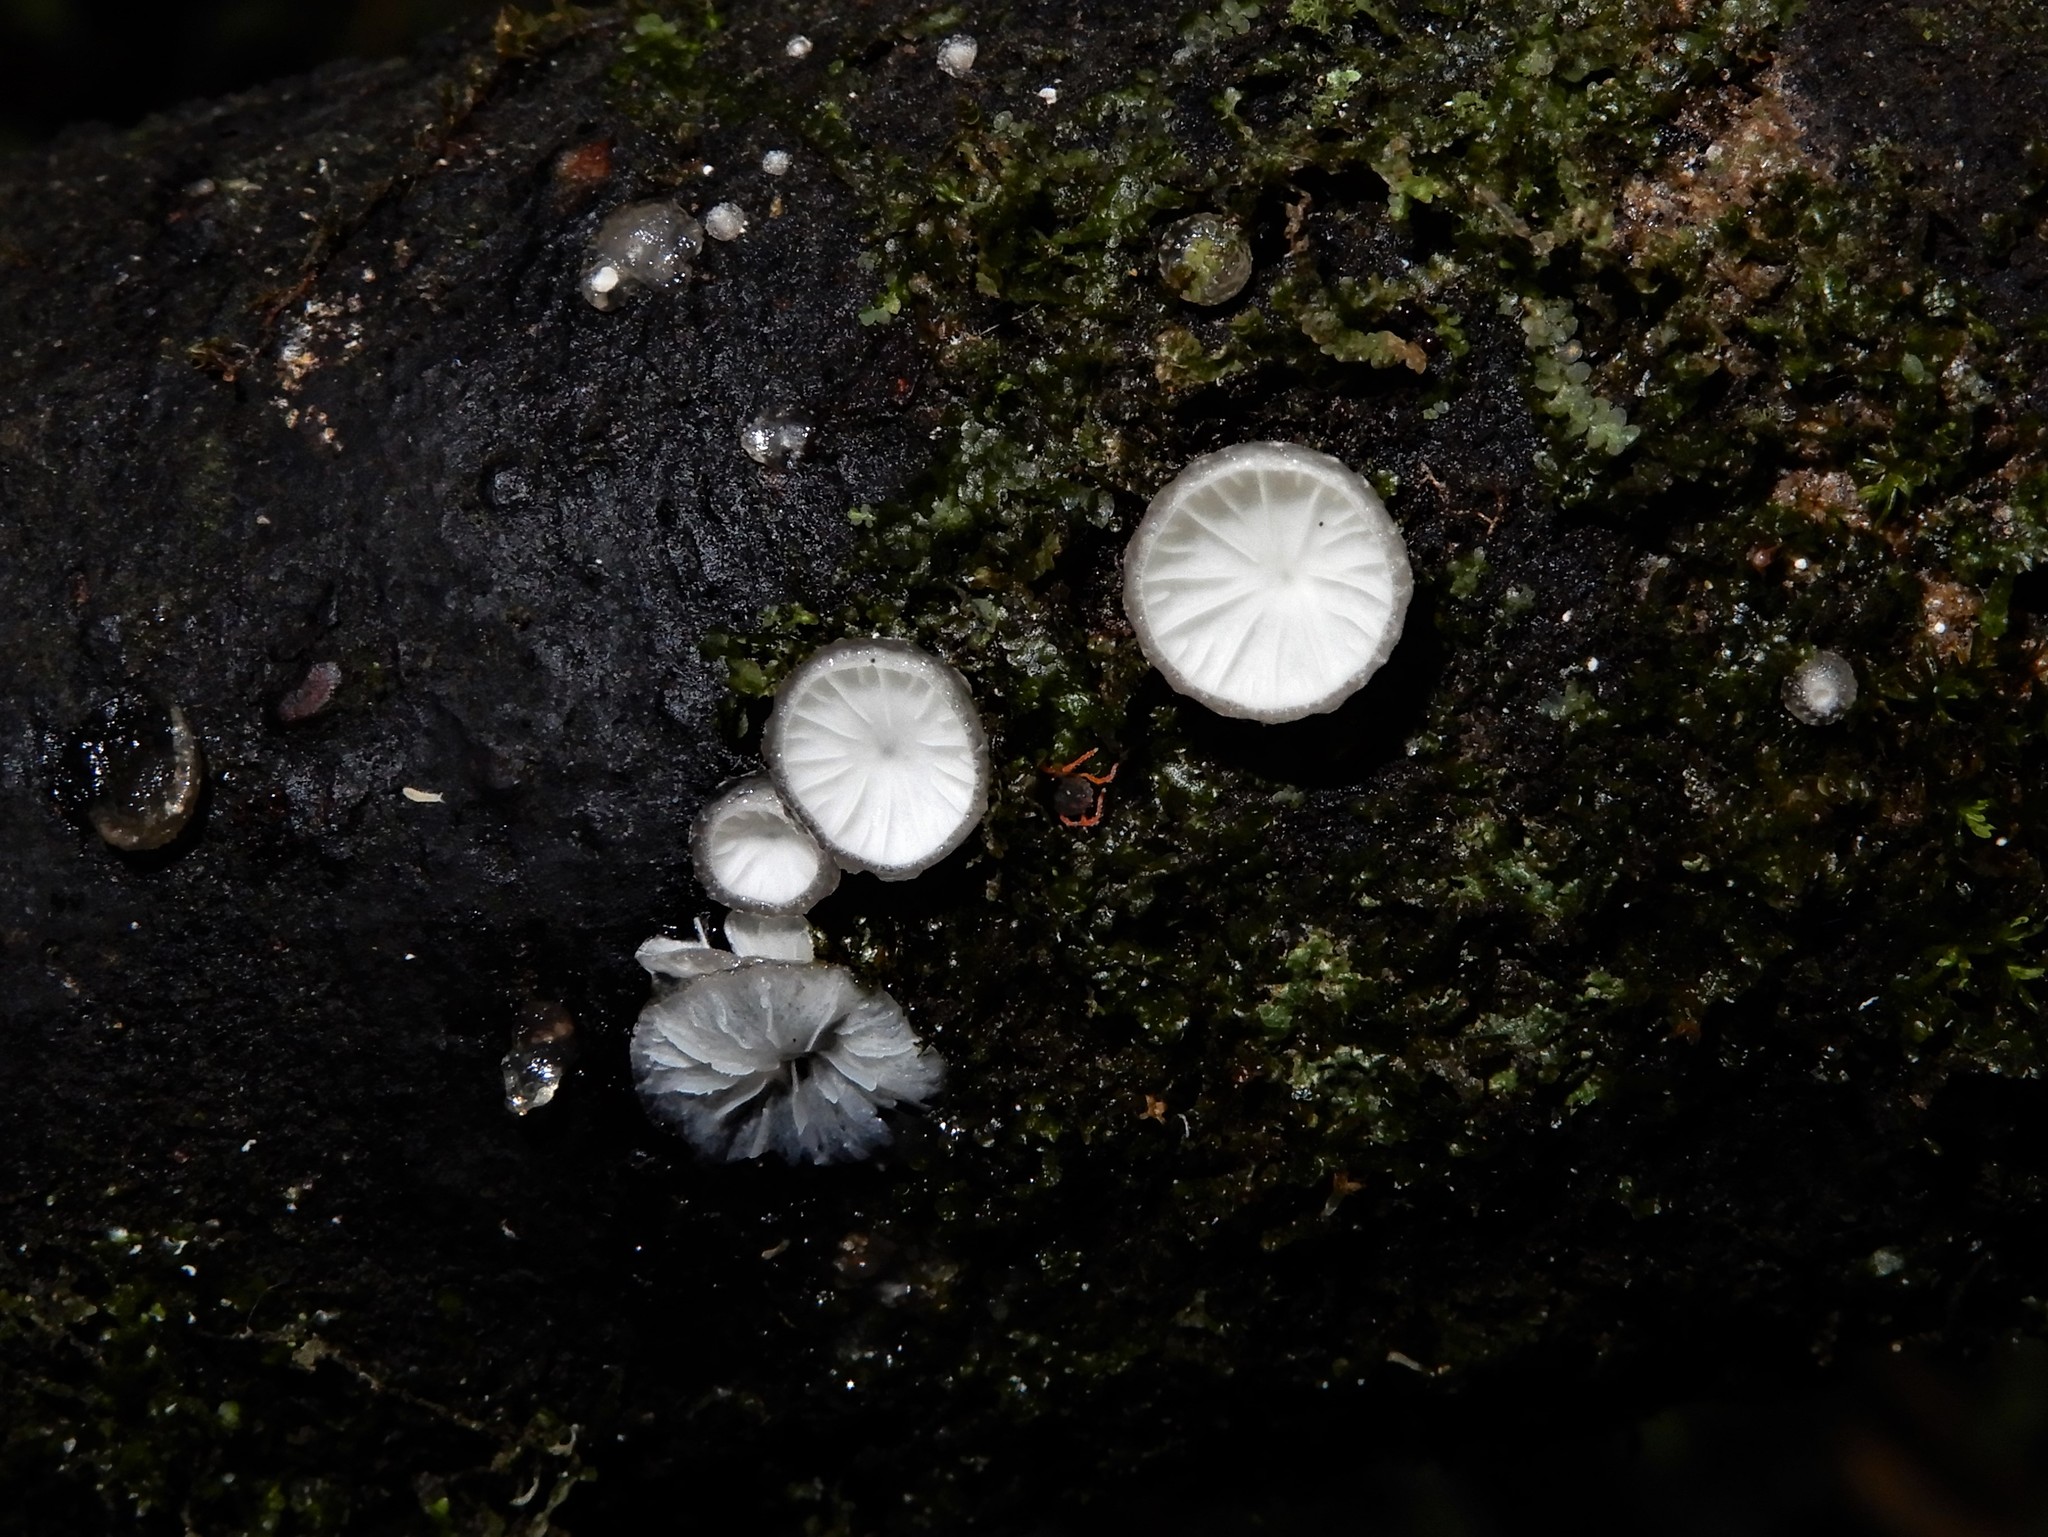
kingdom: Fungi
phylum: Basidiomycota
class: Agaricomycetes
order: Agaricales
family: Pleurotaceae
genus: Hohenbuehelia
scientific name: Hohenbuehelia
